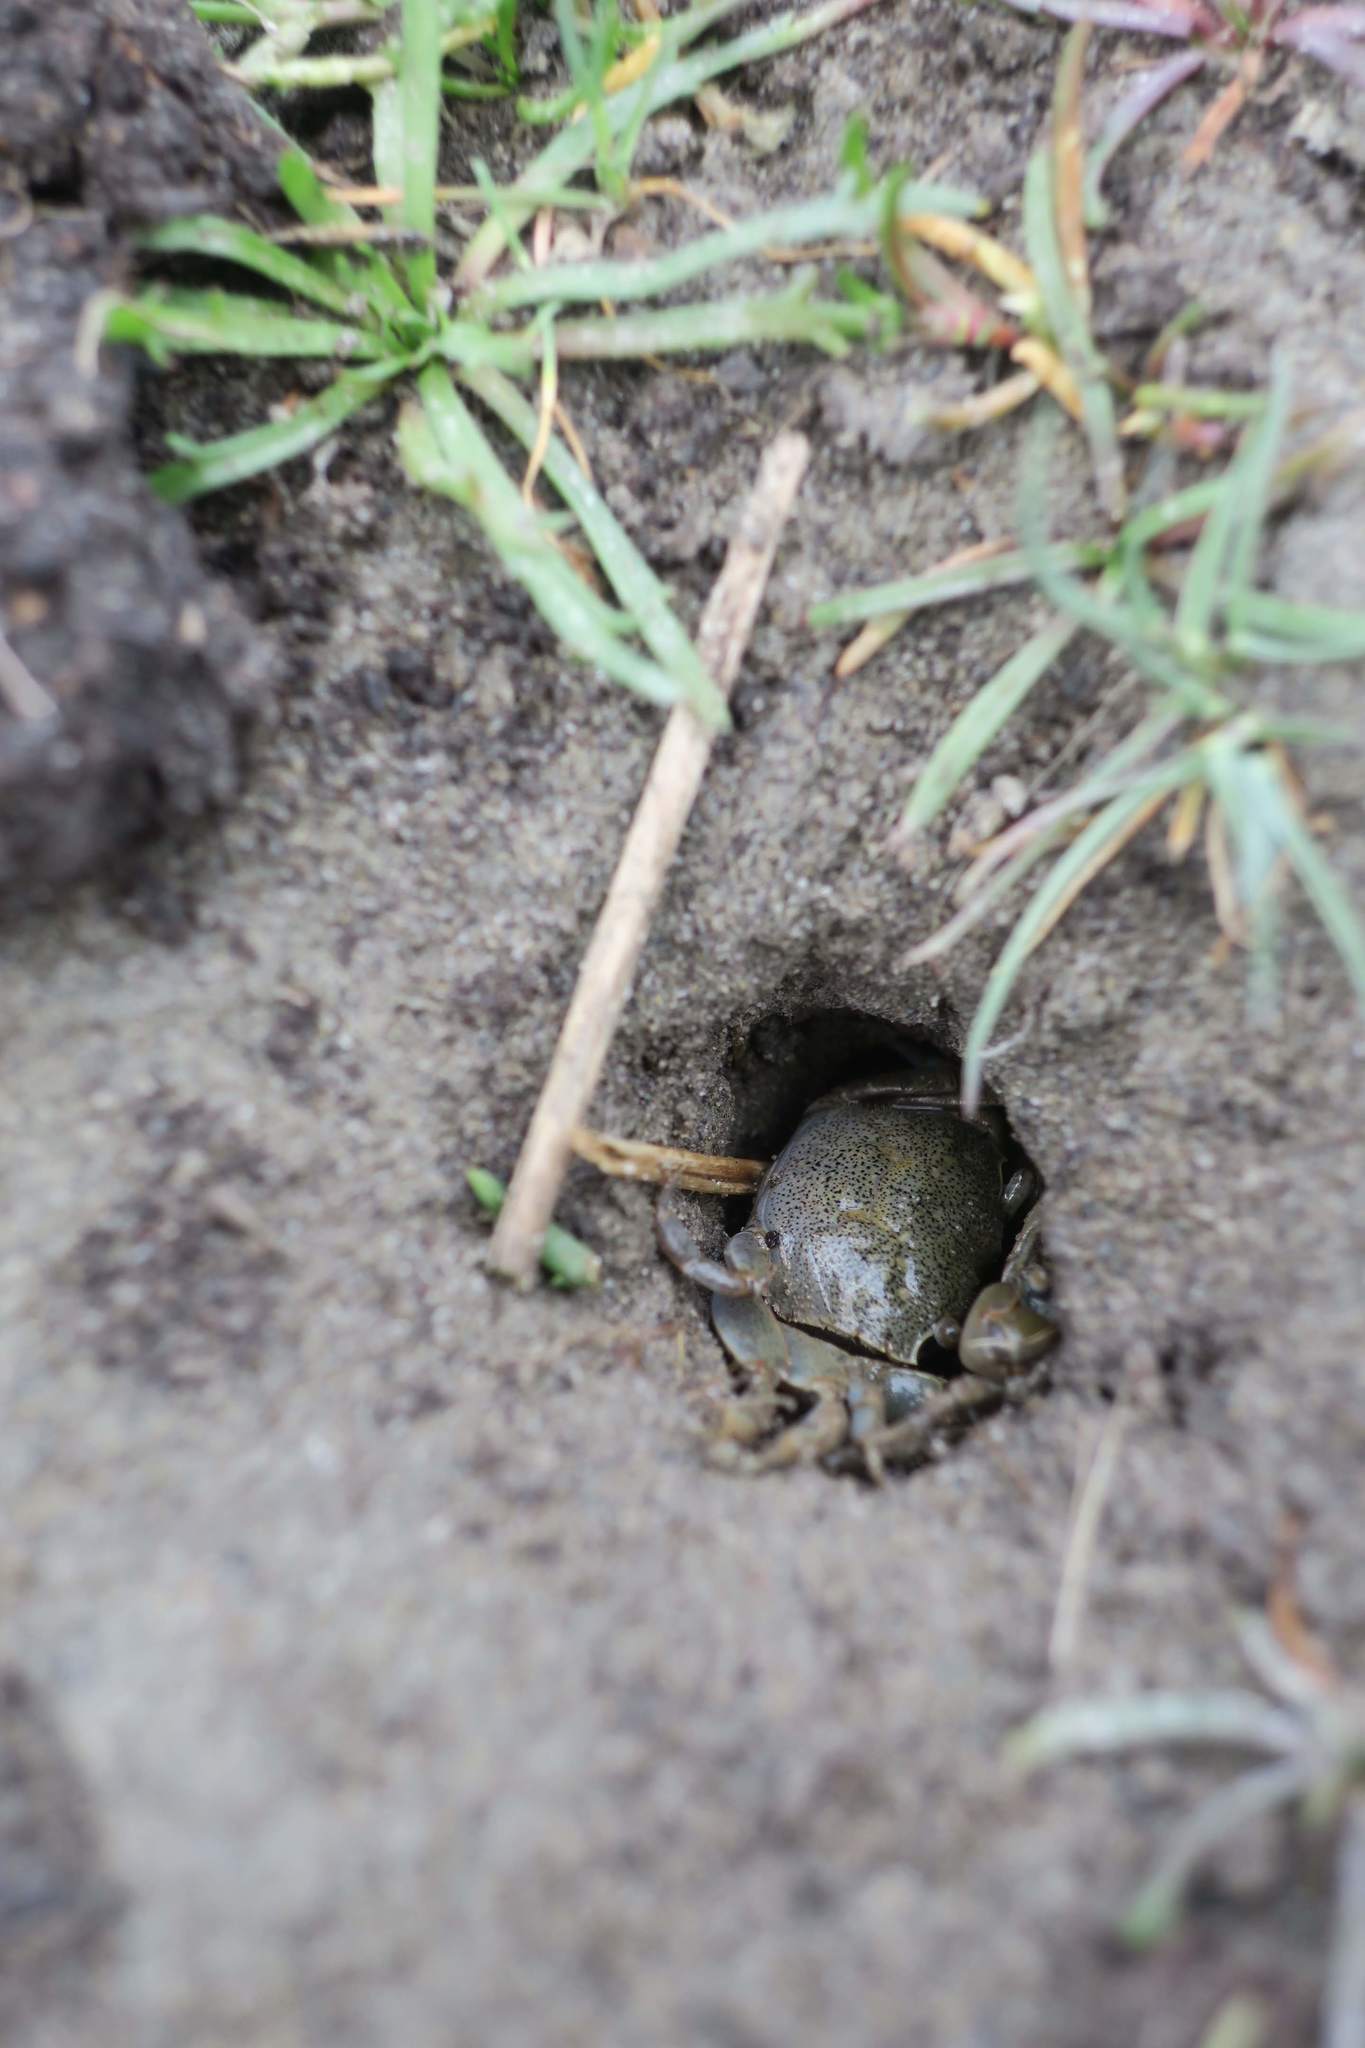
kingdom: Animalia
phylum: Arthropoda
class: Malacostraca
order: Decapoda
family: Varunidae
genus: Austrohelice
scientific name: Austrohelice crassa
